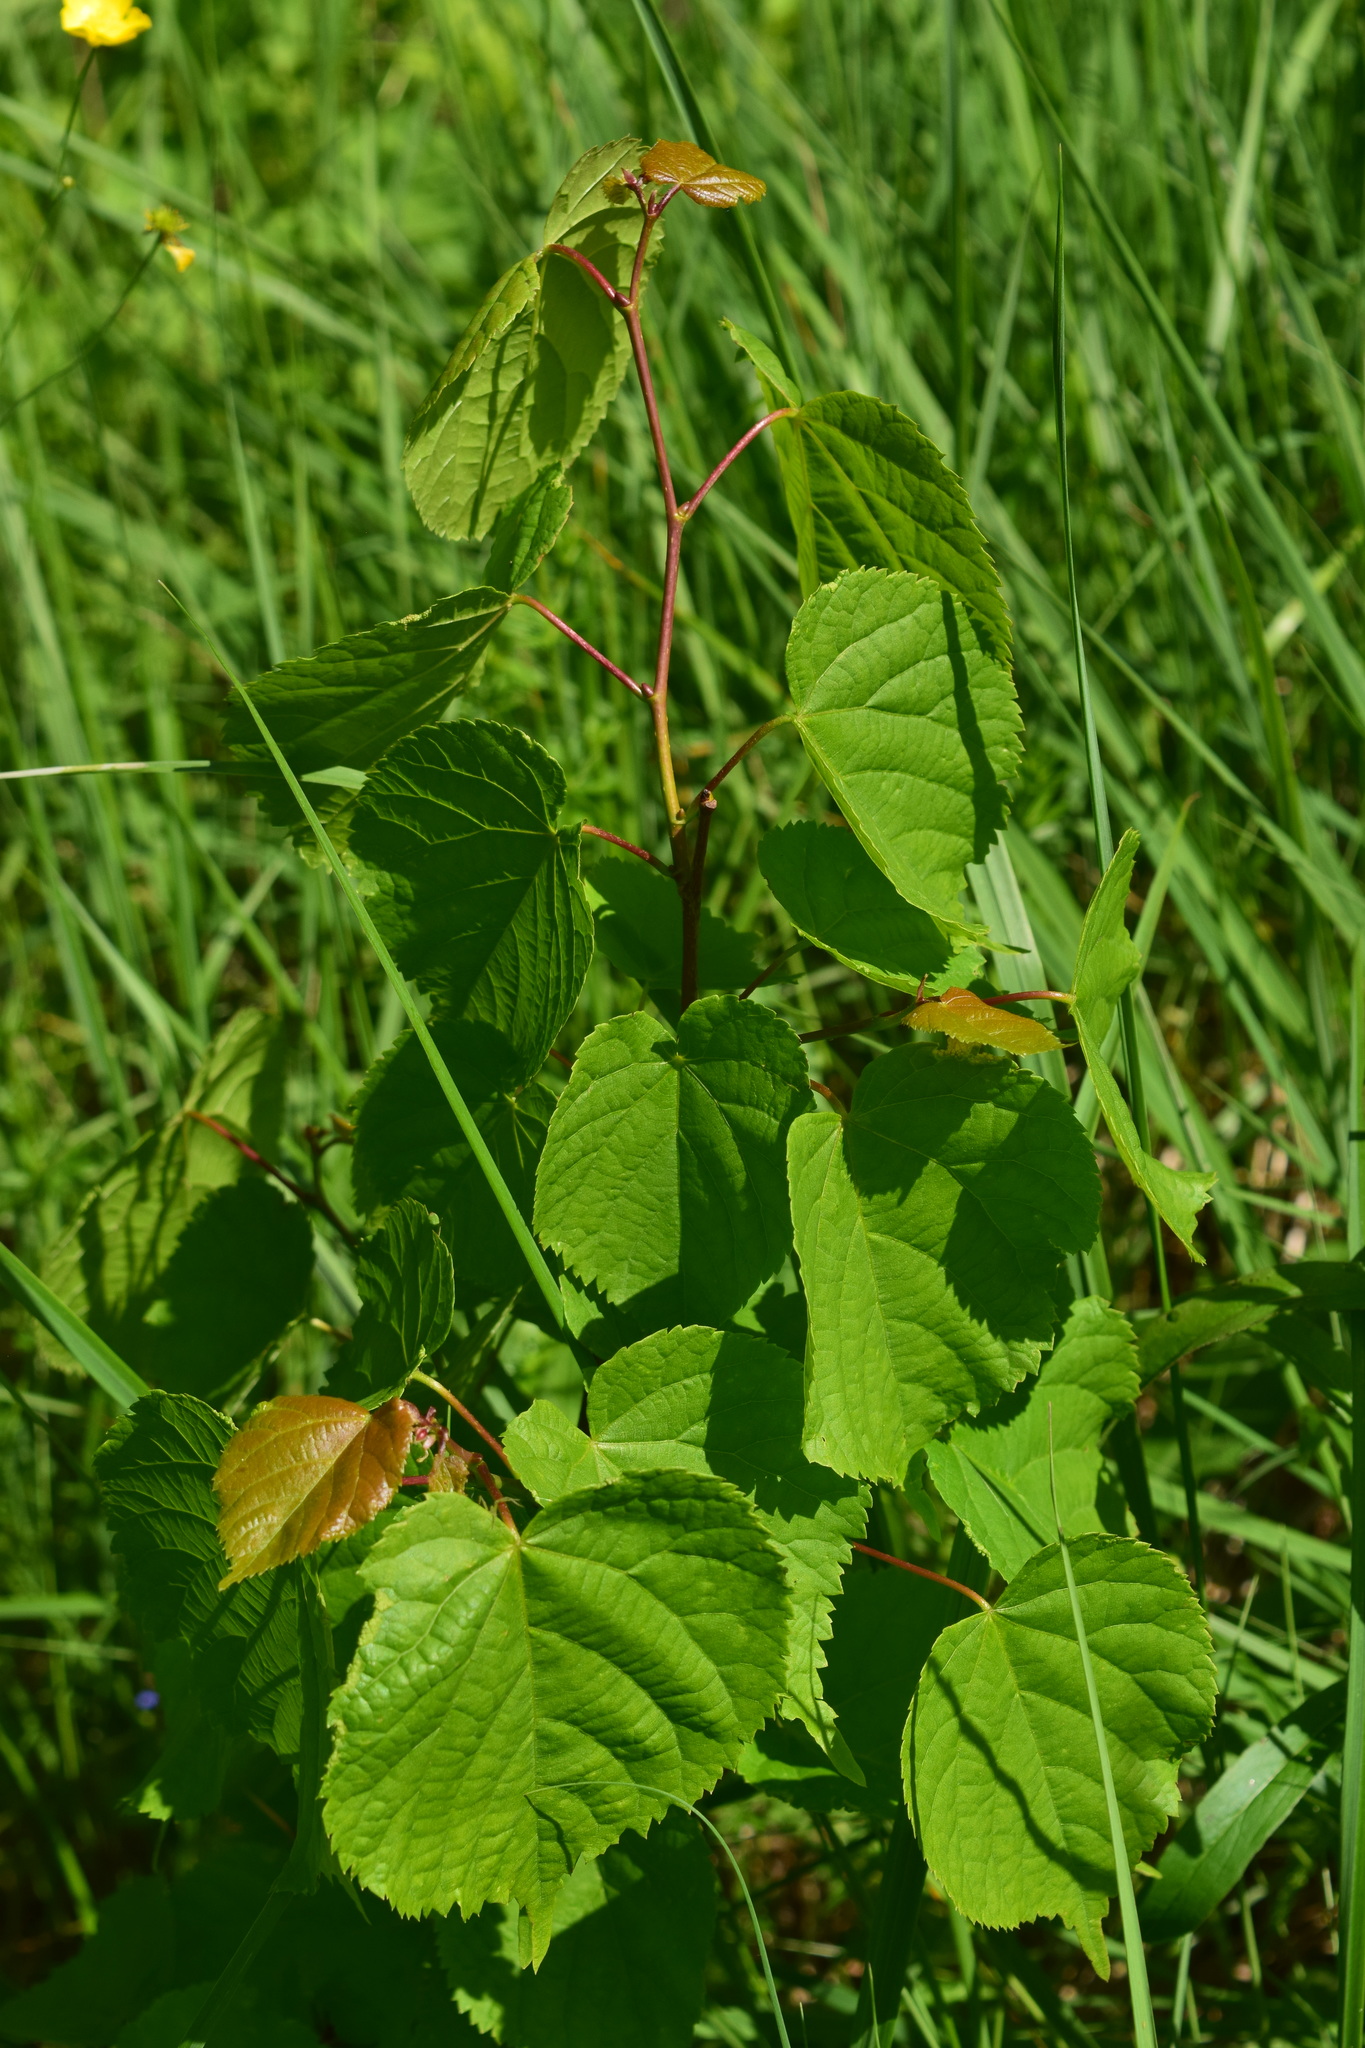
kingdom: Plantae
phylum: Tracheophyta
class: Magnoliopsida
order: Malvales
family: Malvaceae
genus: Tilia
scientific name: Tilia cordata
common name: Small-leaved lime
